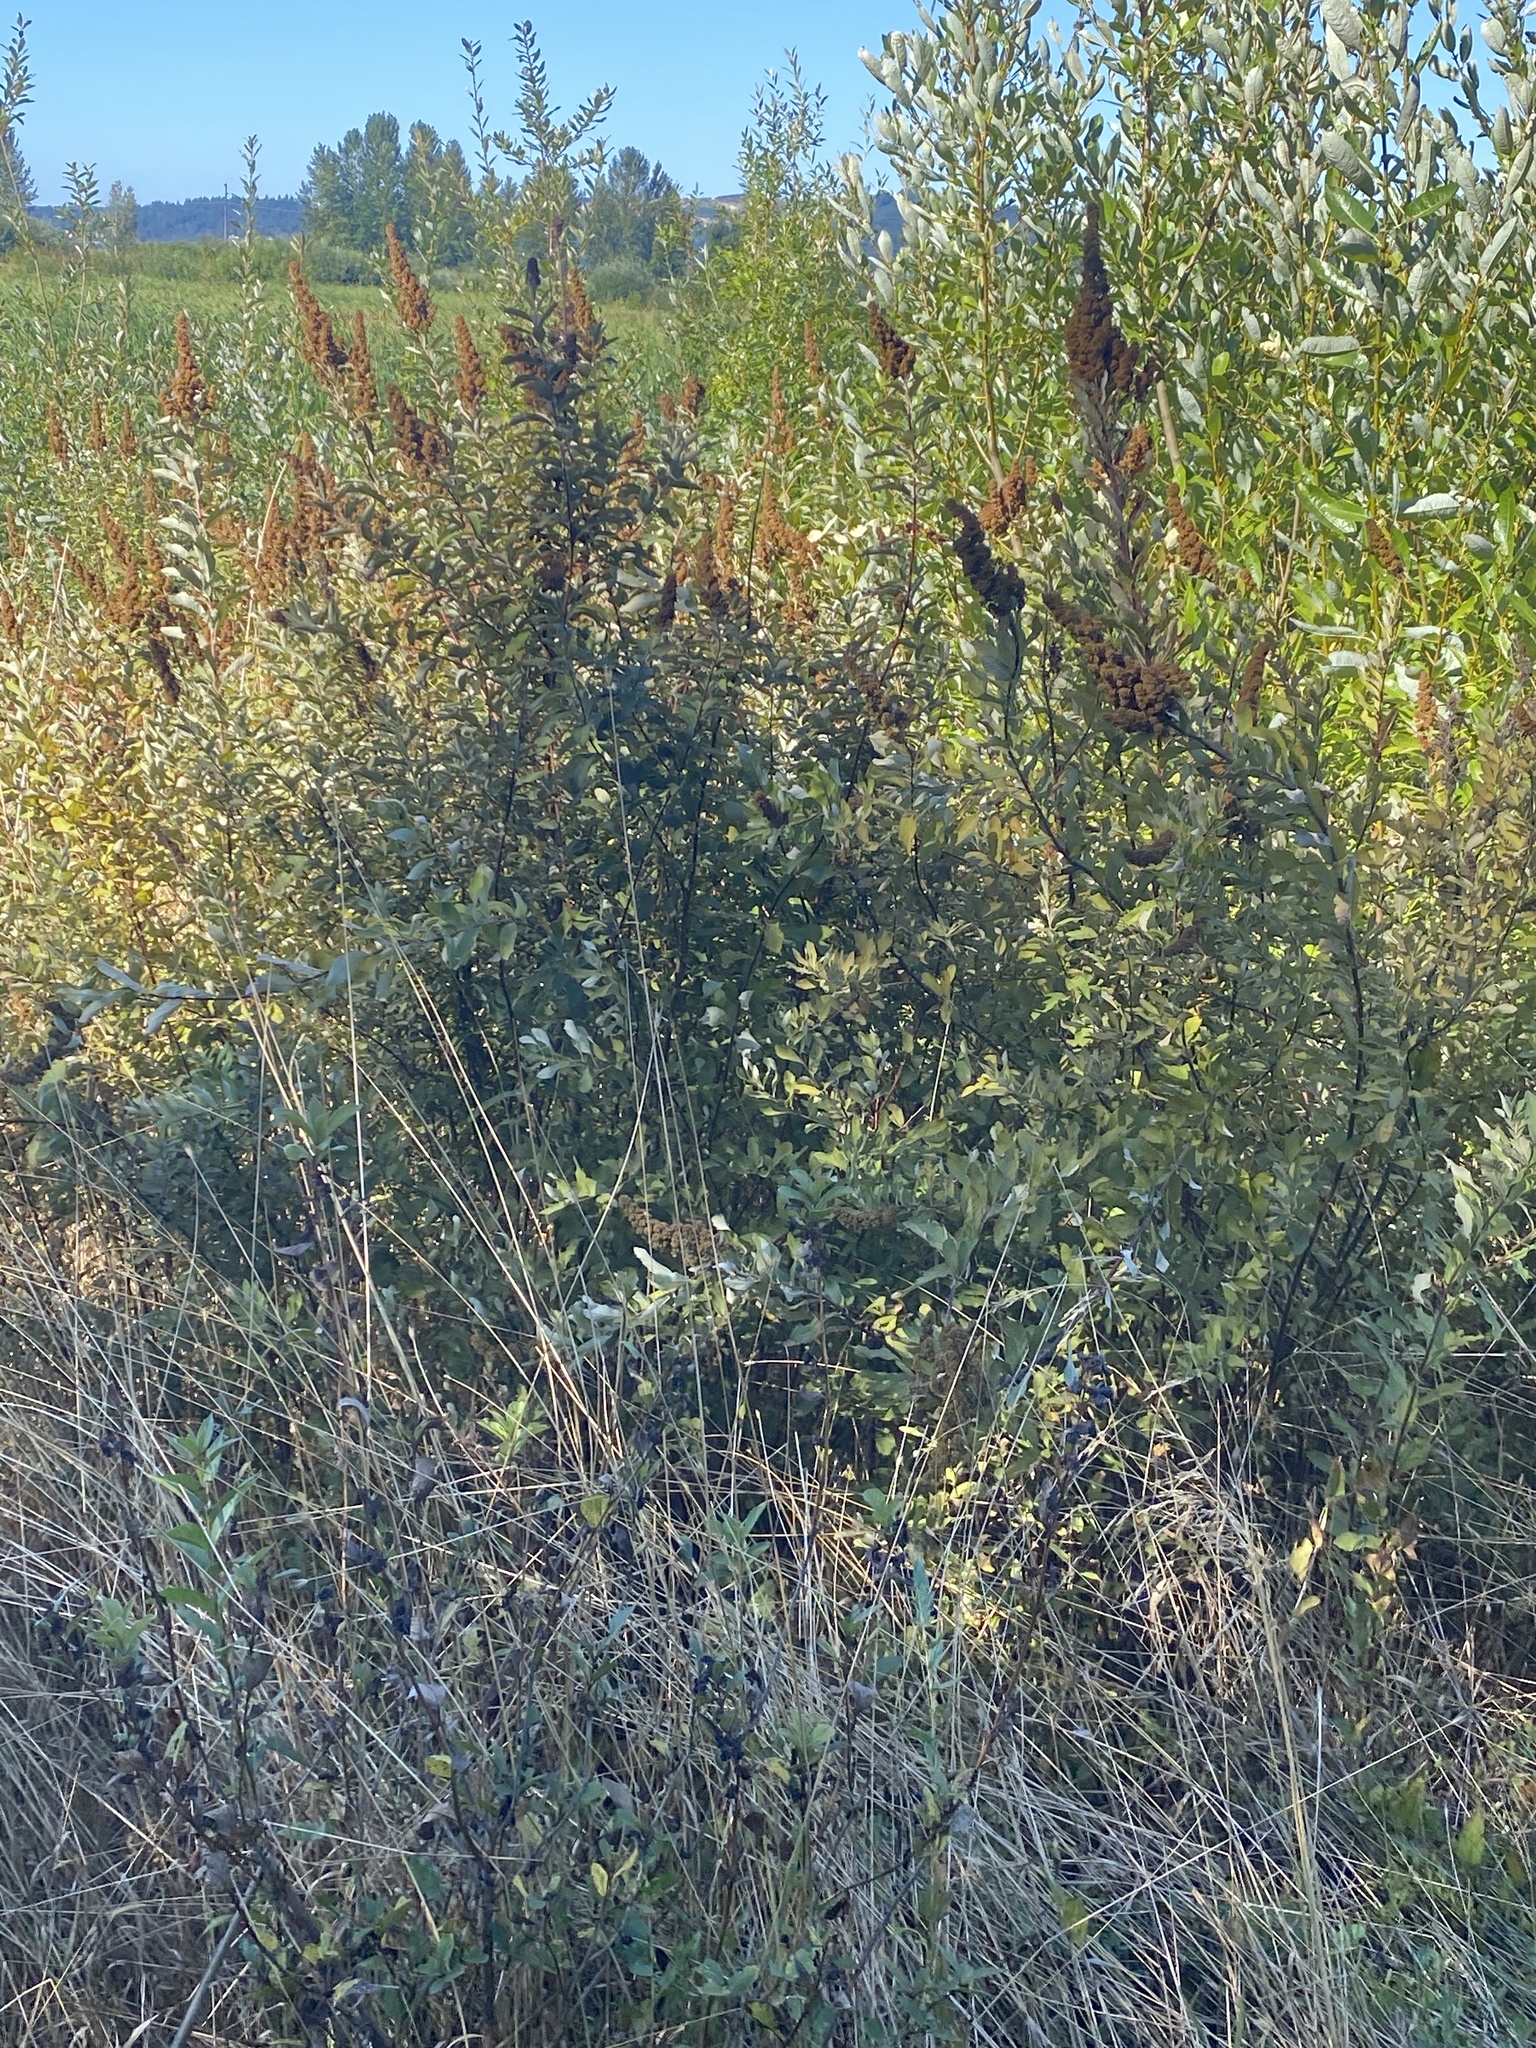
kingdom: Plantae
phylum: Tracheophyta
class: Magnoliopsida
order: Rosales
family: Rosaceae
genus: Spiraea
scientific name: Spiraea douglasii
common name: Steeplebush
